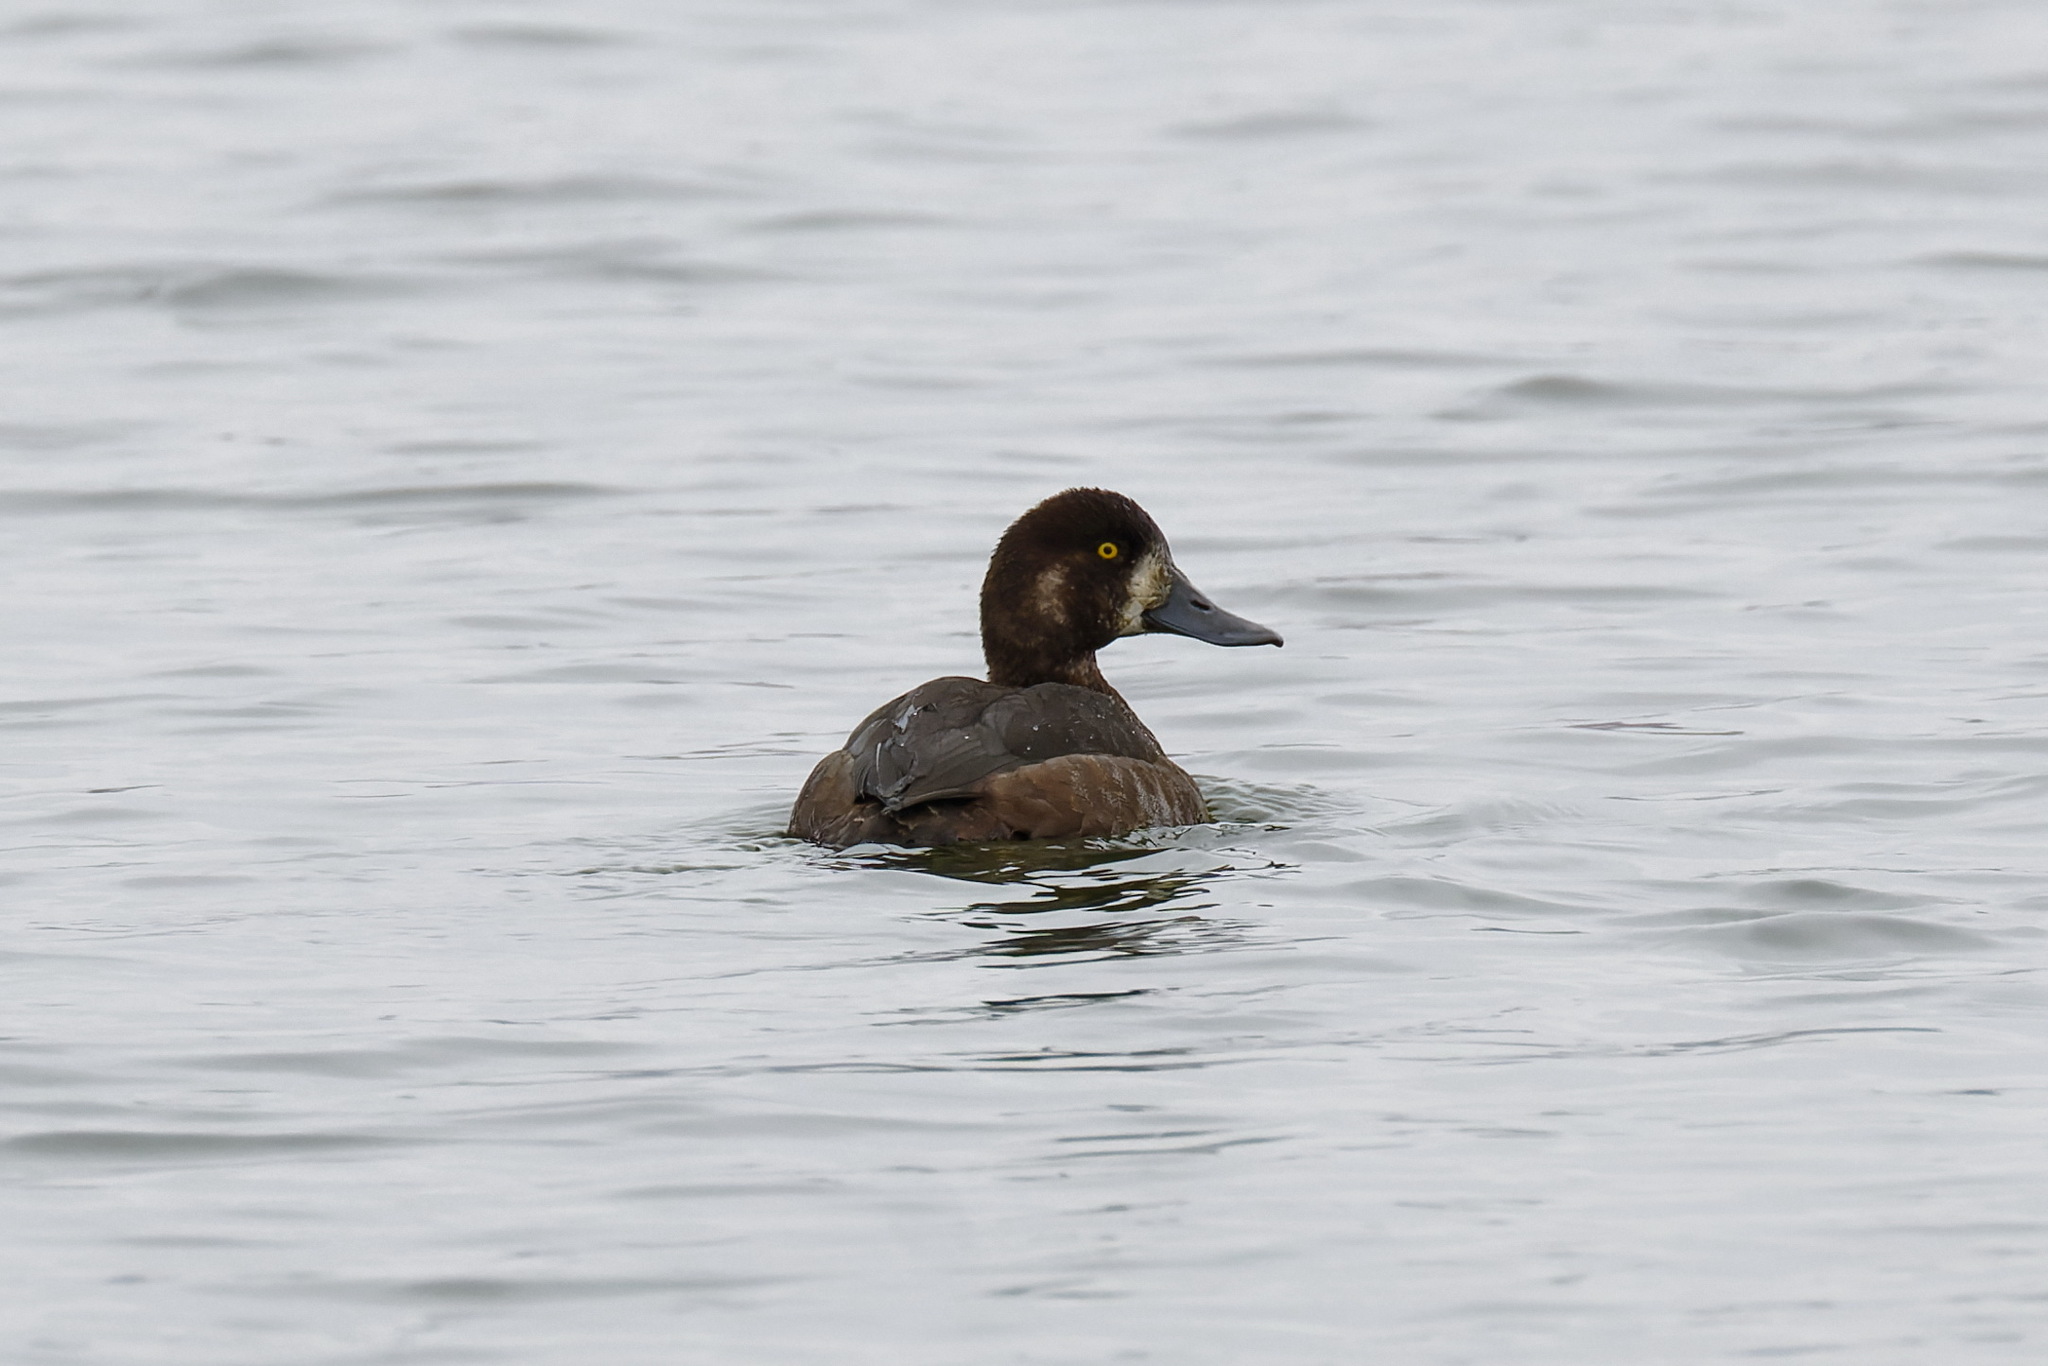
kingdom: Animalia
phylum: Chordata
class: Aves
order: Anseriformes
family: Anatidae
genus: Aythya
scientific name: Aythya marila
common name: Greater scaup
